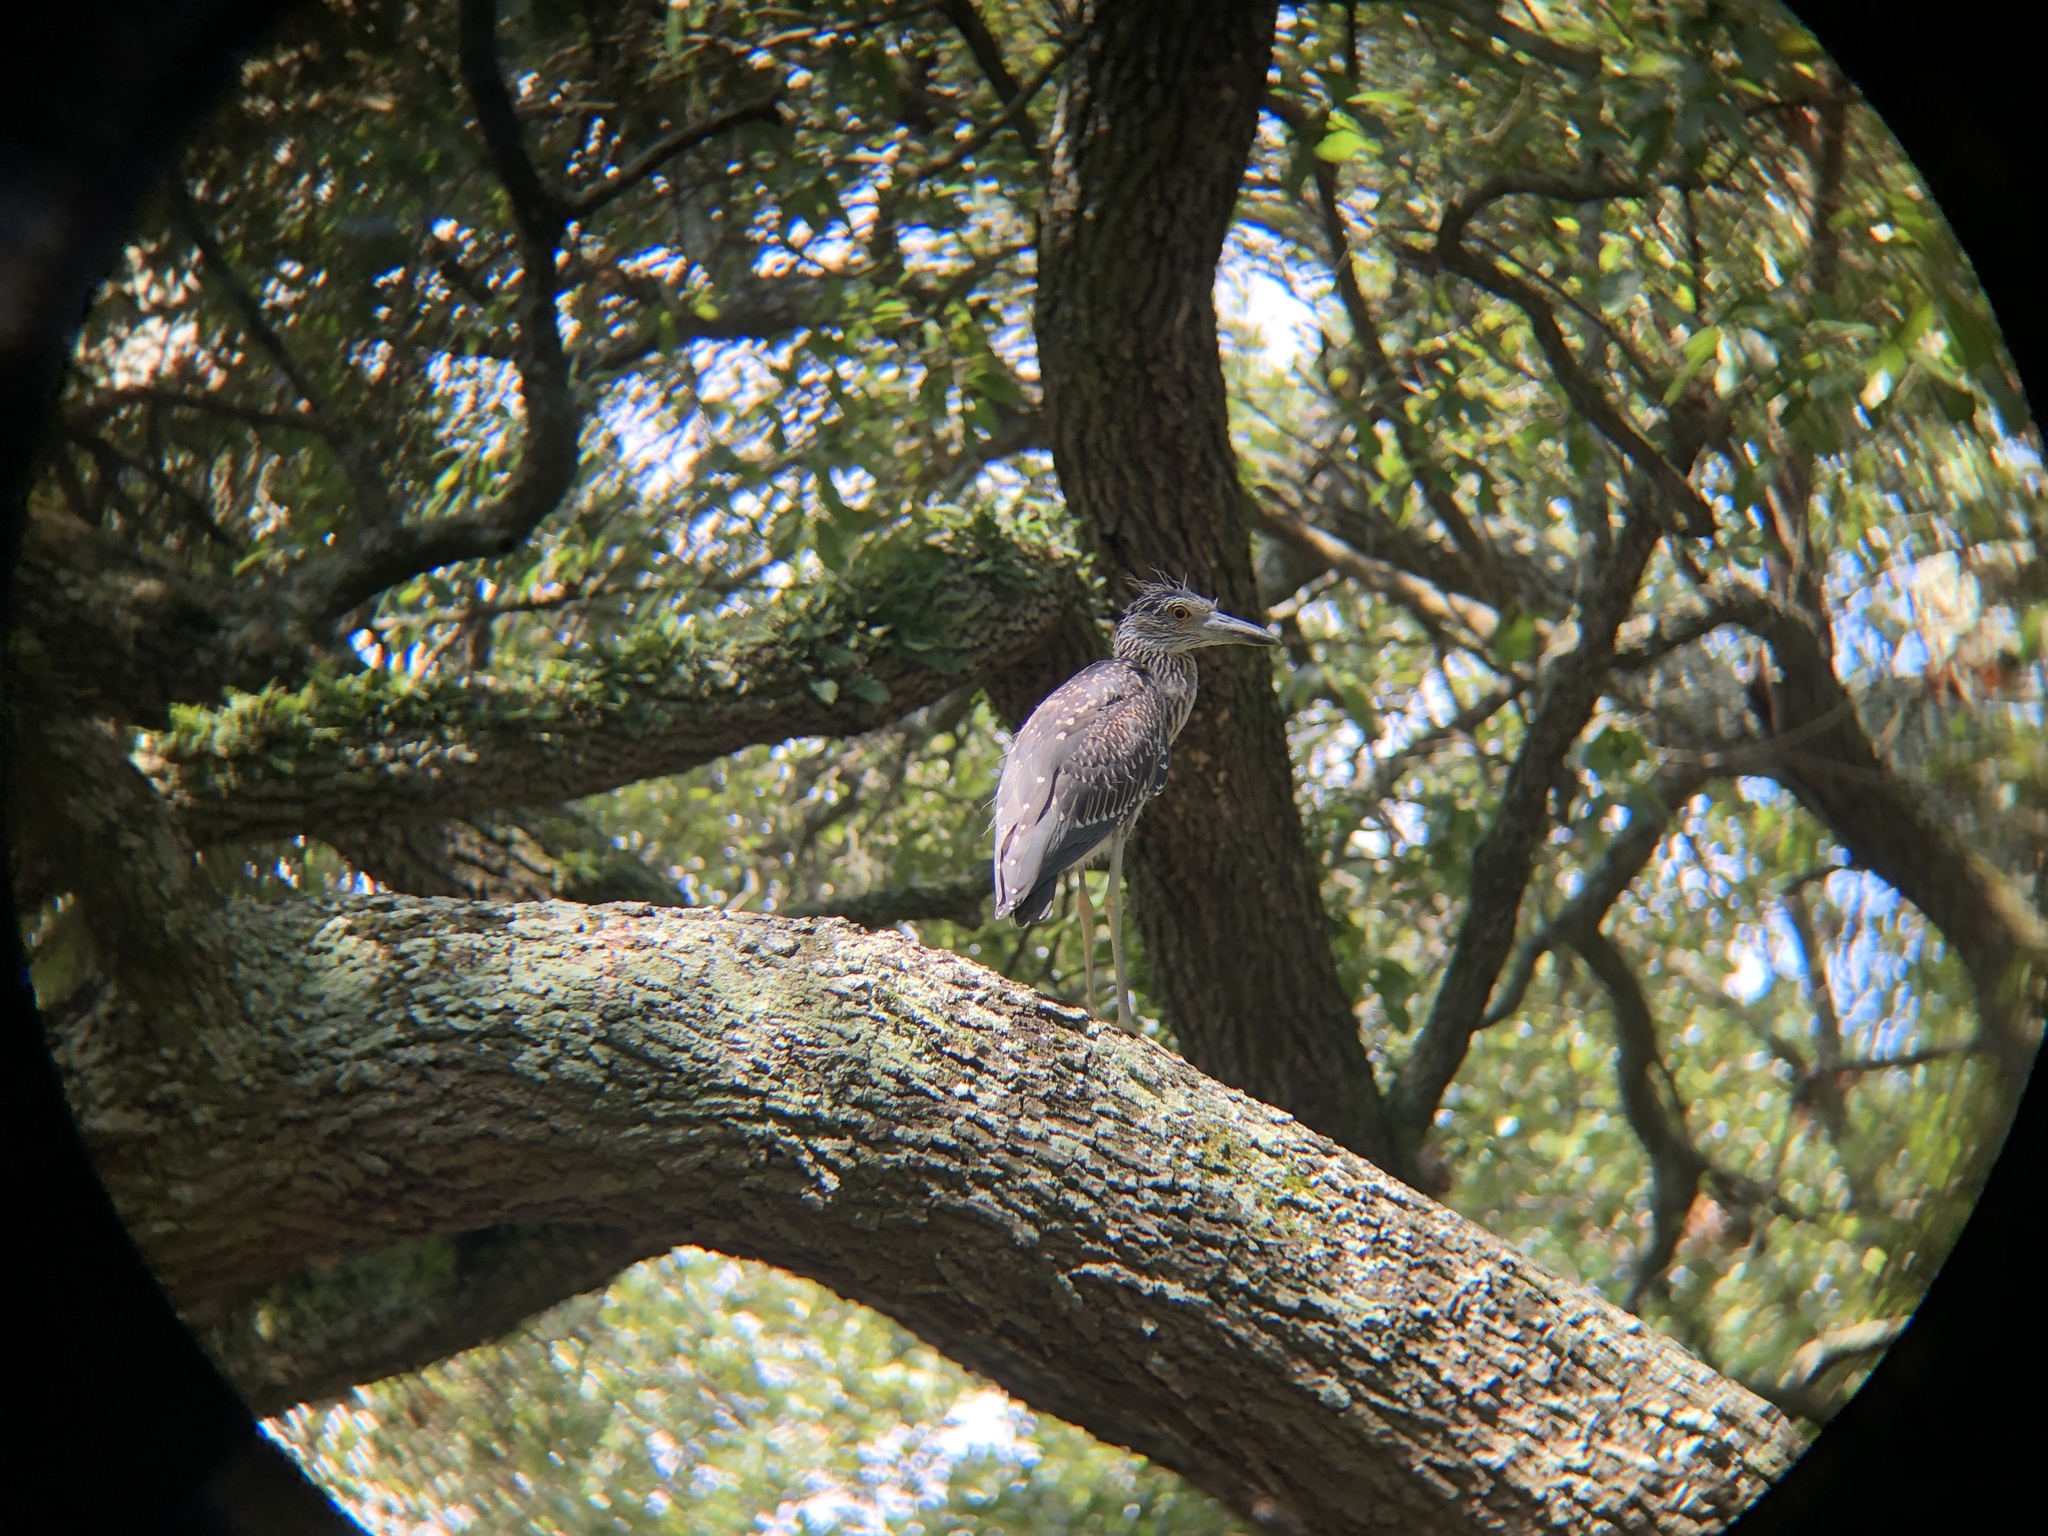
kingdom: Animalia
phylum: Chordata
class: Aves
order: Pelecaniformes
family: Ardeidae
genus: Nyctanassa
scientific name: Nyctanassa violacea
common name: Yellow-crowned night heron
